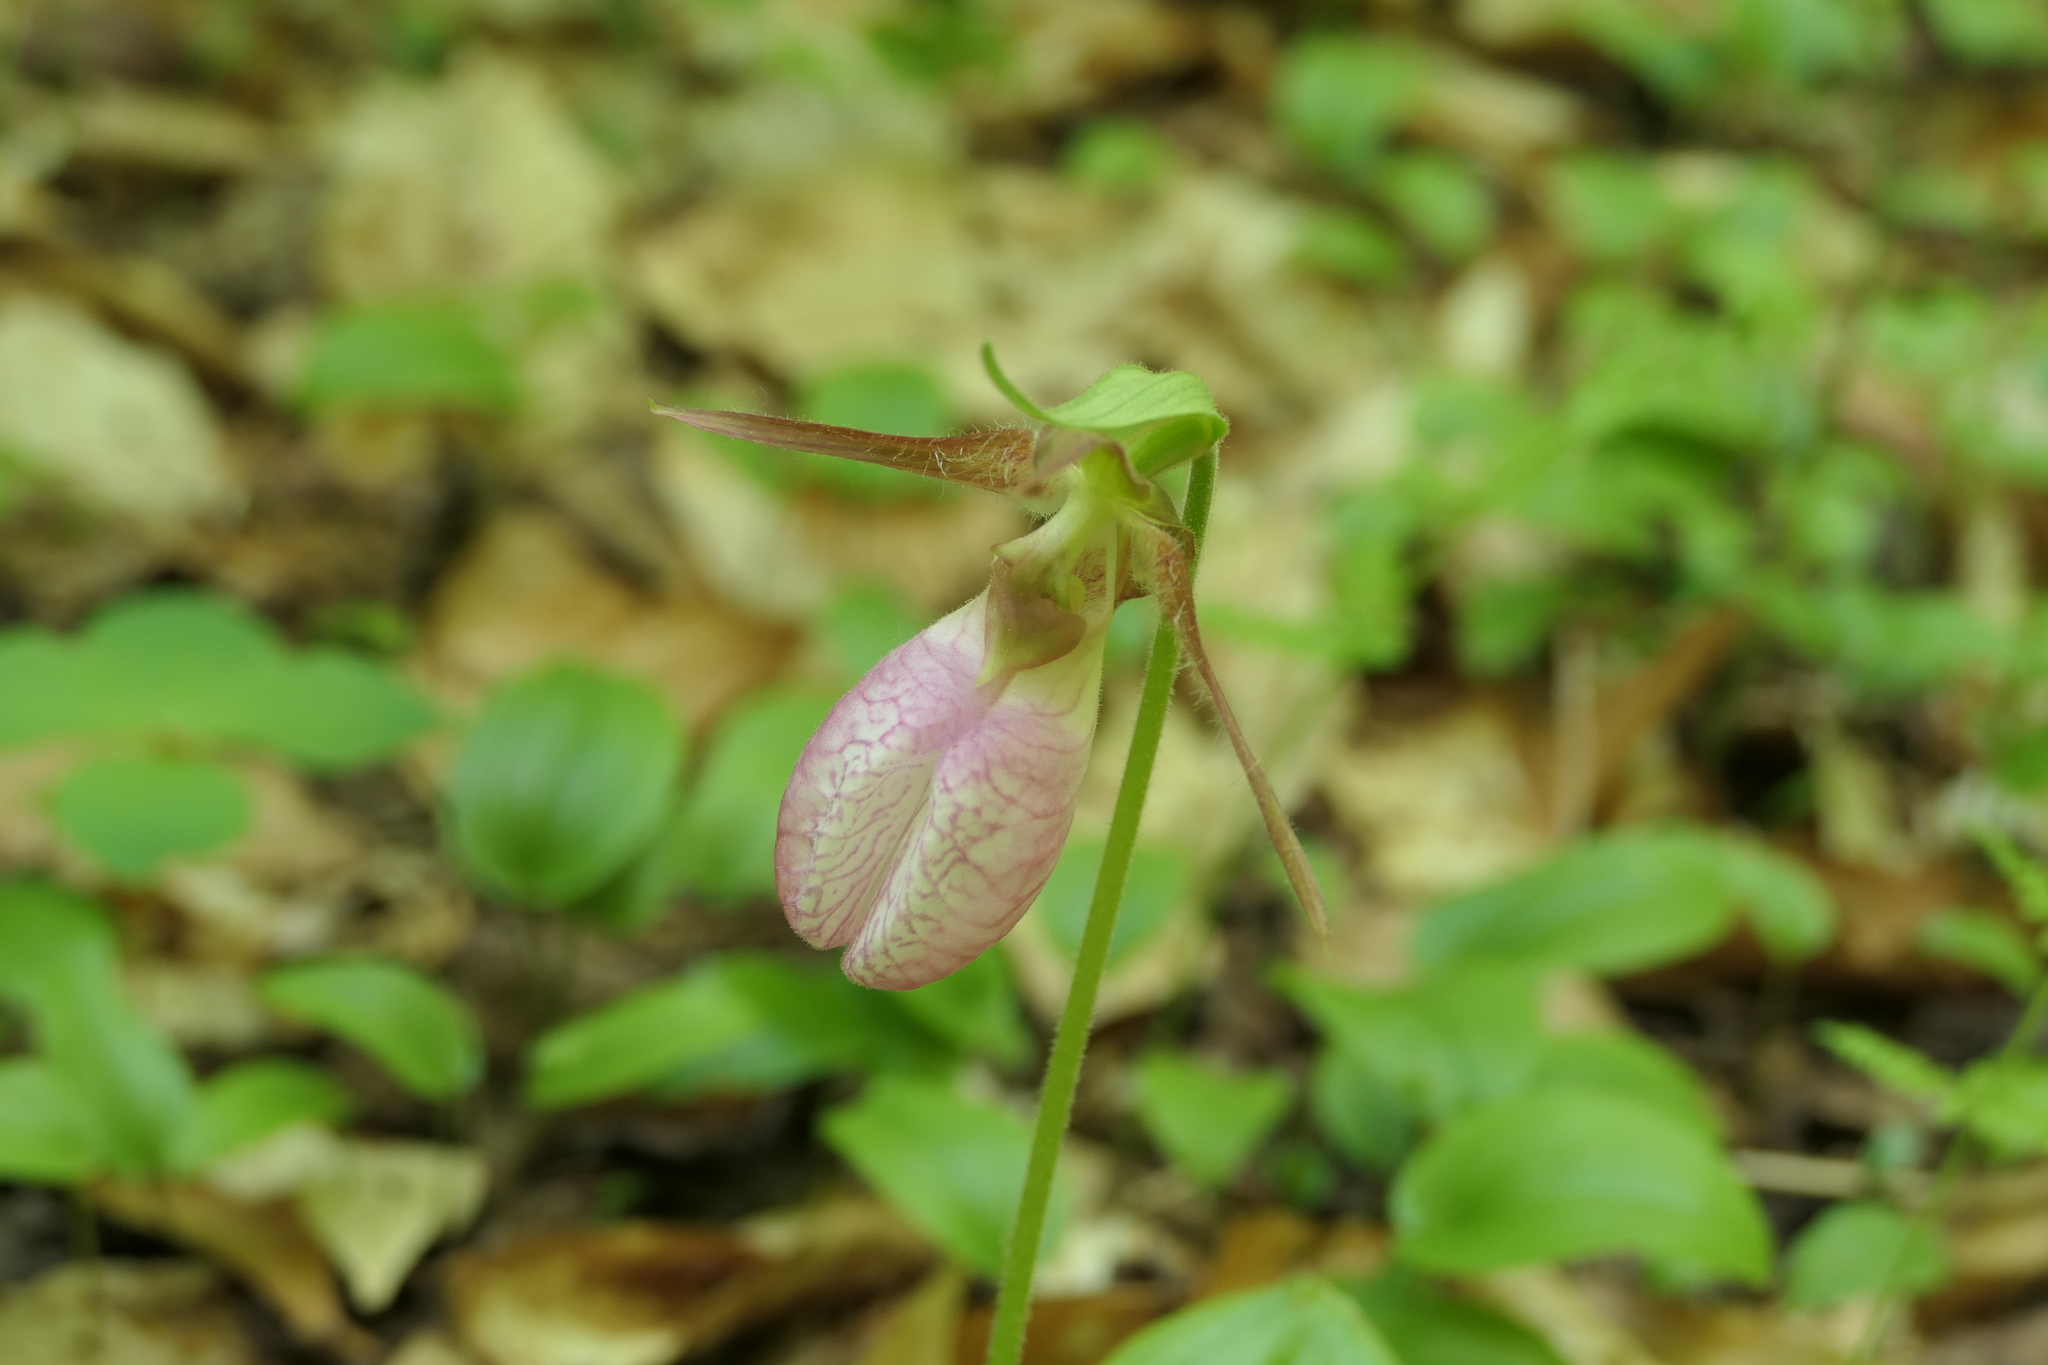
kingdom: Plantae
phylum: Tracheophyta
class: Liliopsida
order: Asparagales
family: Orchidaceae
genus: Cypripedium
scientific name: Cypripedium acaule
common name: Pink lady's-slipper
